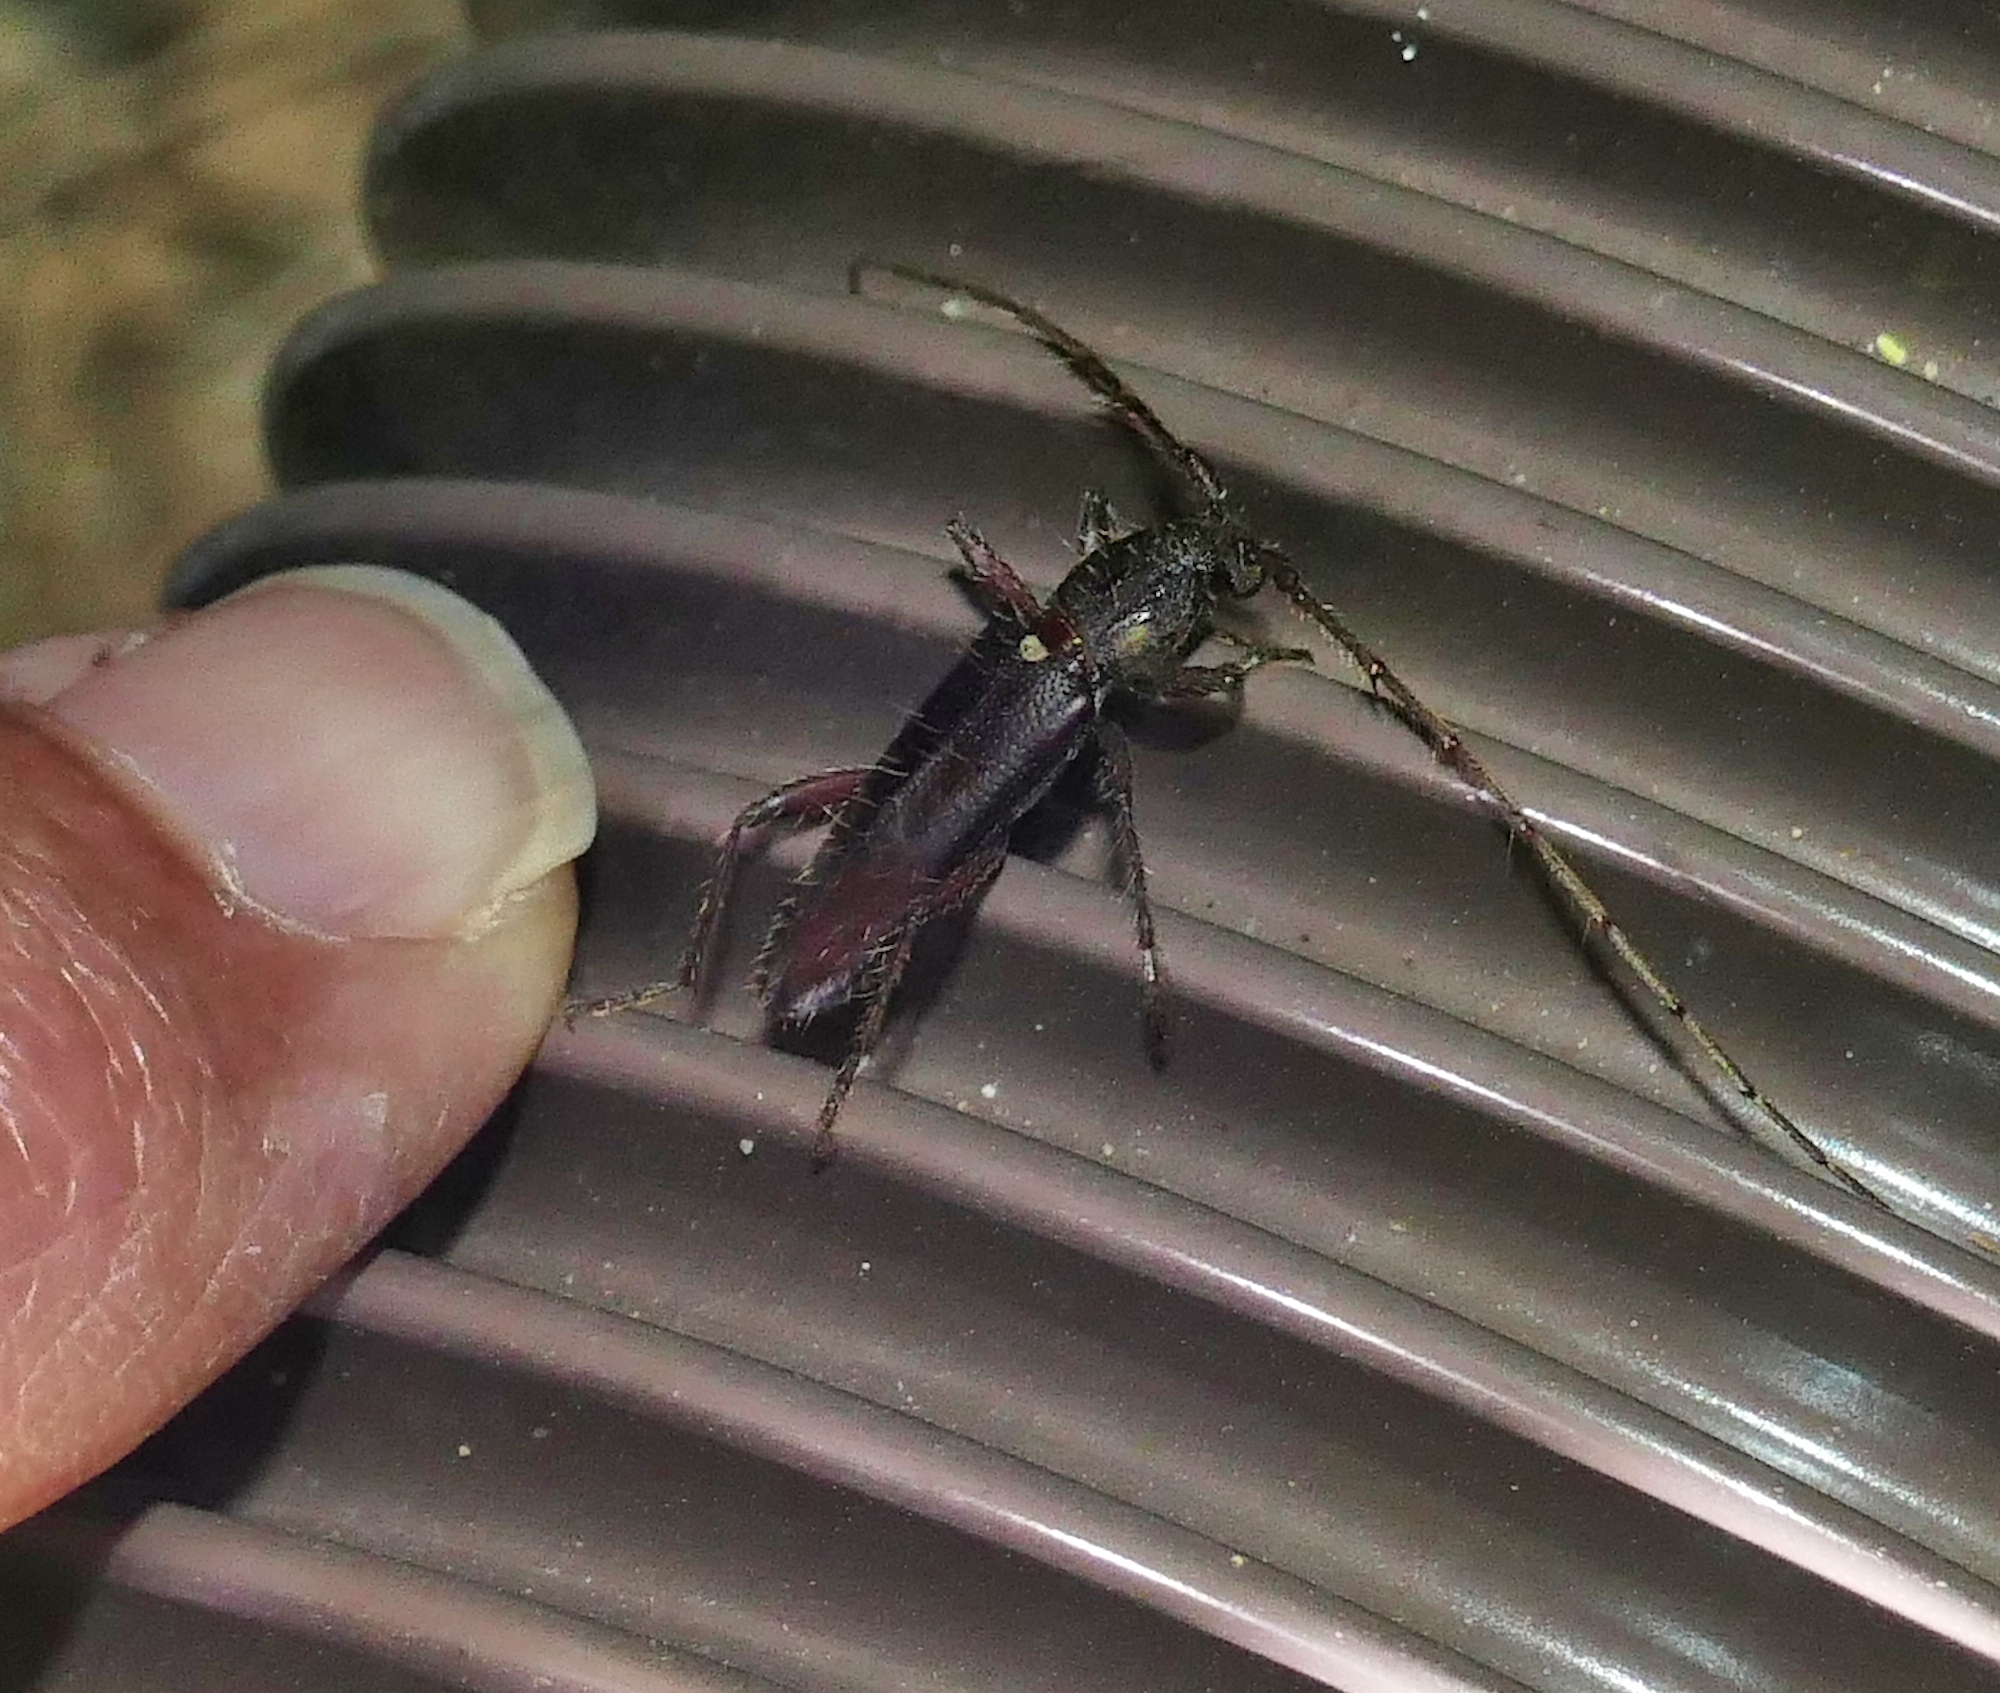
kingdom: Animalia
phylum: Arthropoda
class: Insecta
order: Coleoptera
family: Cerambycidae
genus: Stenelaphus
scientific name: Stenelaphus alienus
